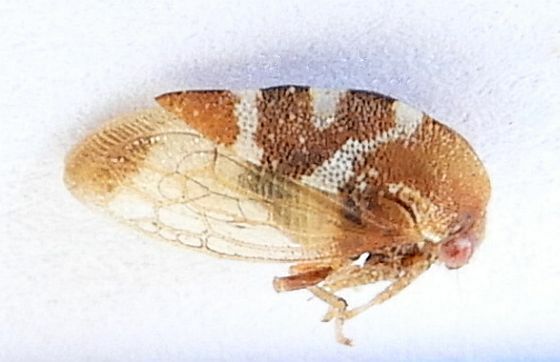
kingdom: Animalia
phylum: Arthropoda
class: Insecta
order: Hemiptera
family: Membracidae
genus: Cyrtolobus
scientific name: Cyrtolobus arizonae
